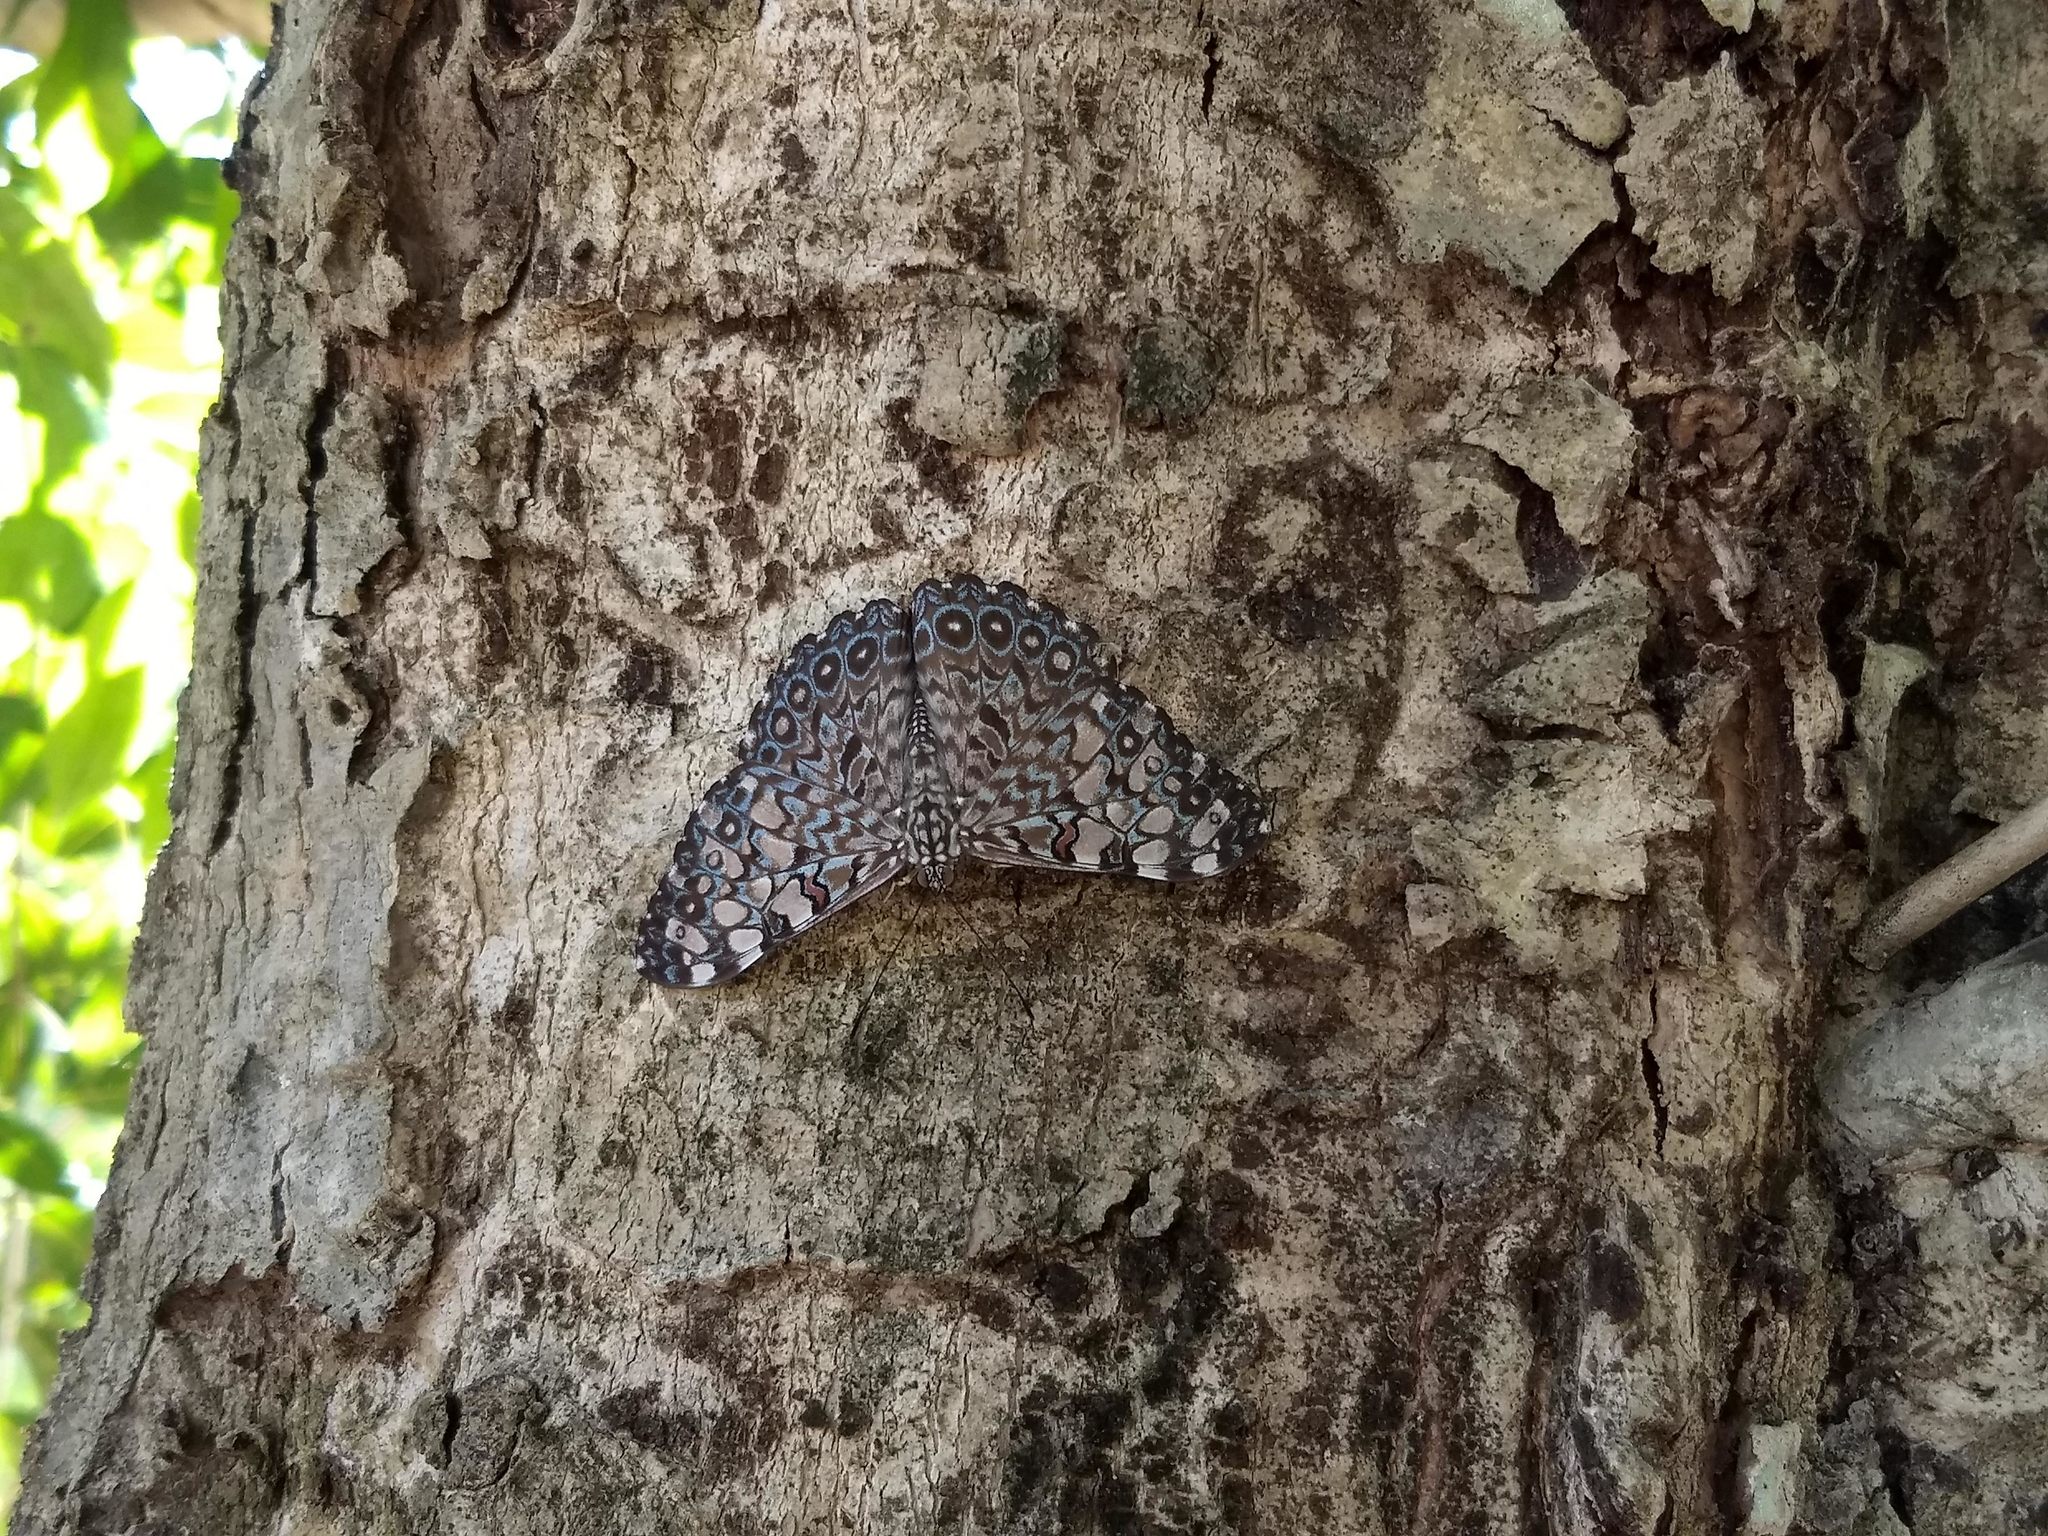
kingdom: Animalia
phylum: Arthropoda
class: Insecta
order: Lepidoptera
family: Nymphalidae
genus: Hamadryas
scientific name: Hamadryas feronia
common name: Variable cracker
